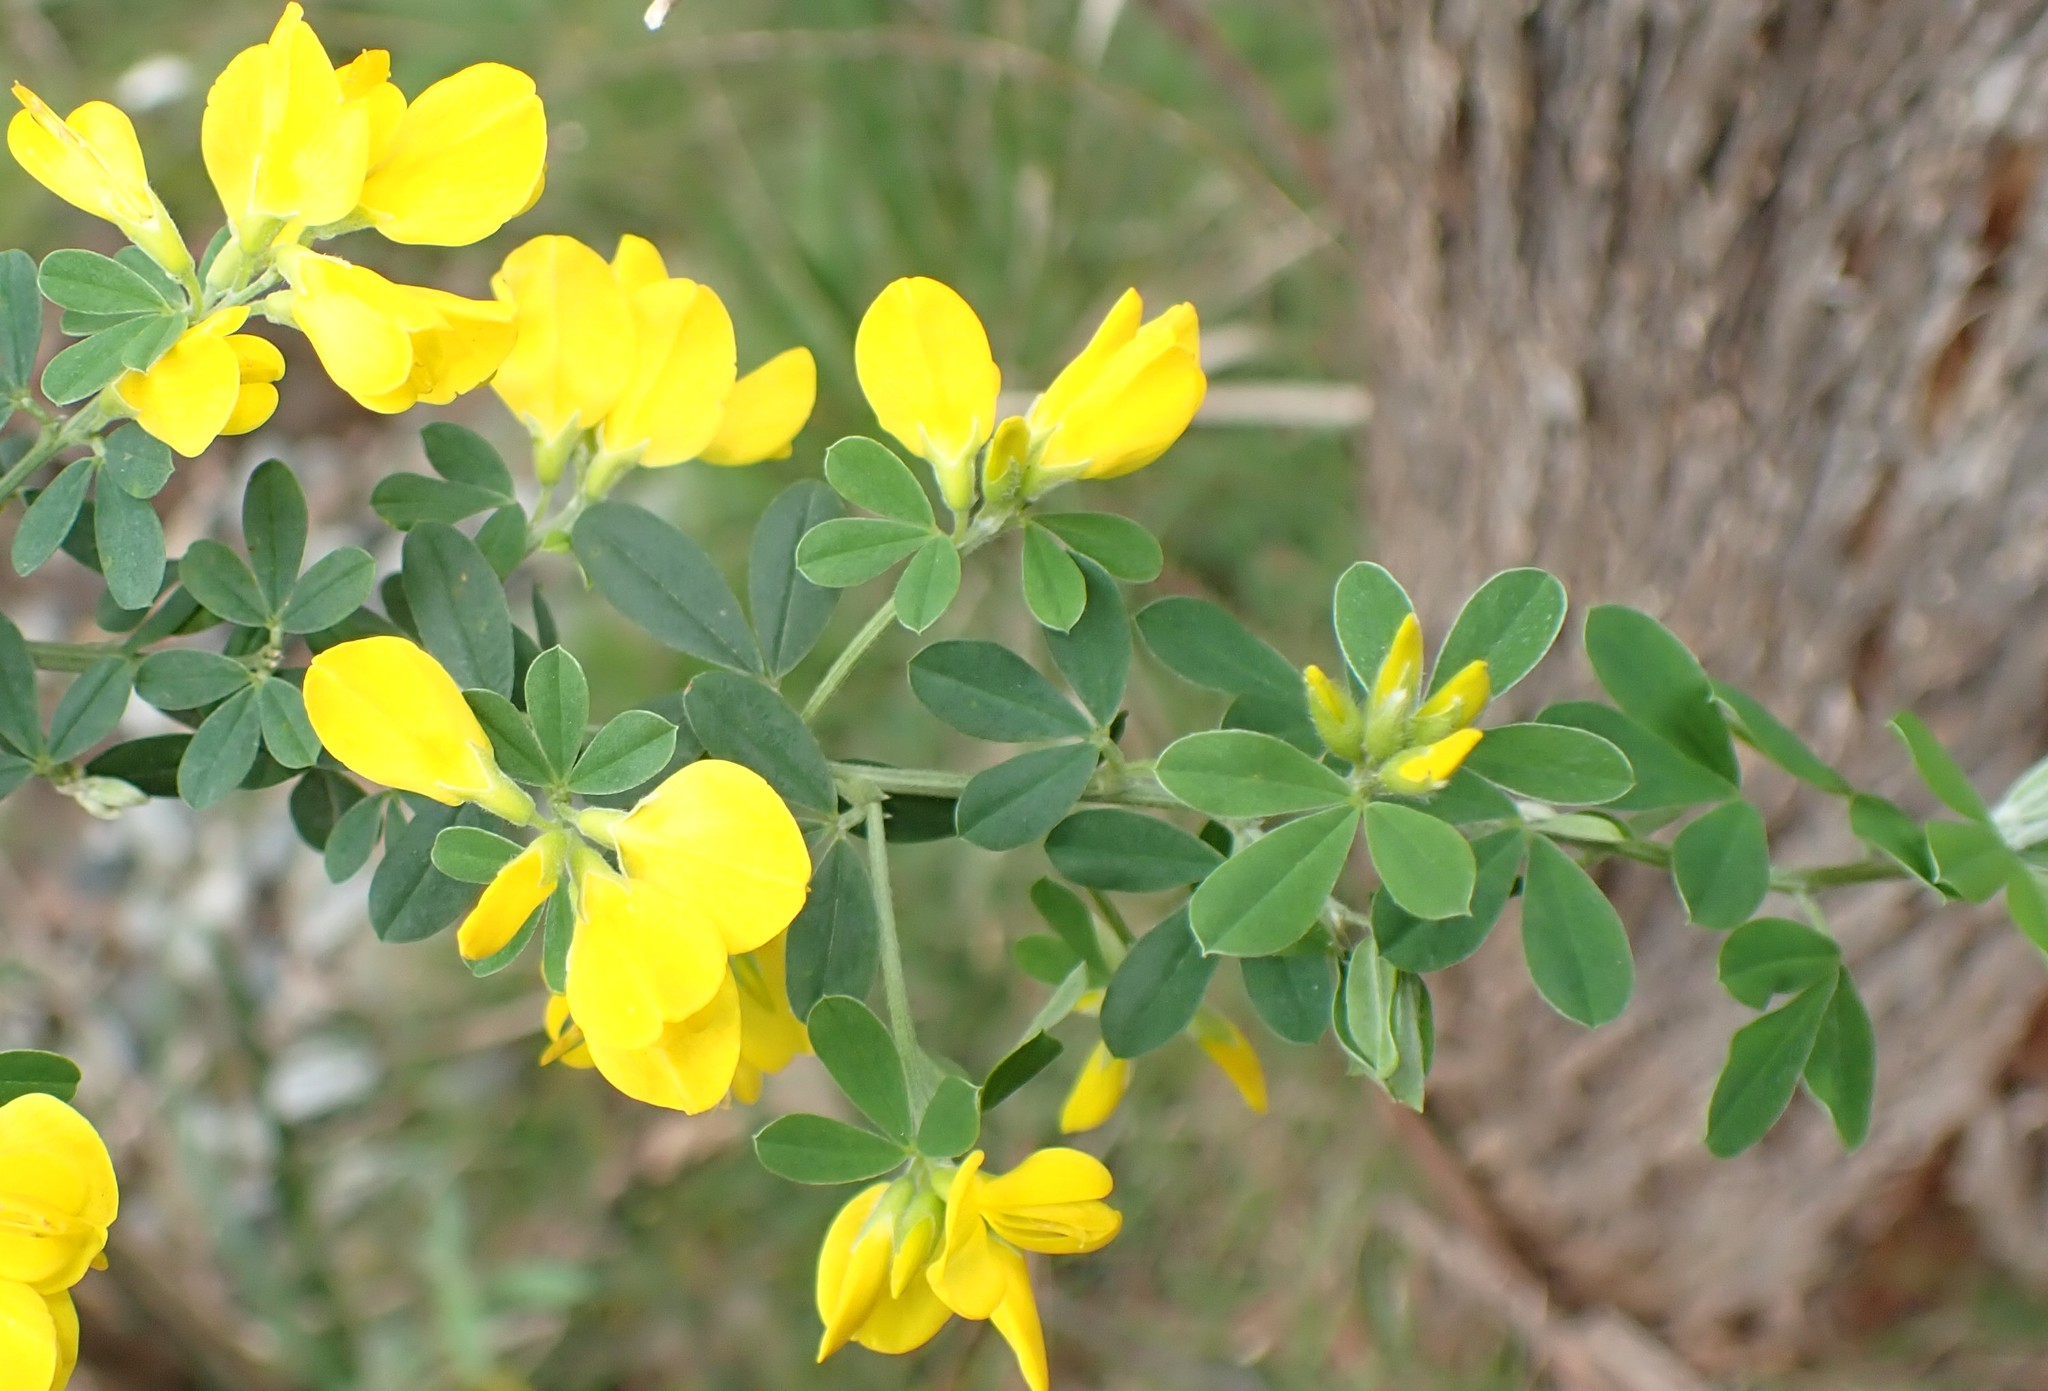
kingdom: Plantae
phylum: Tracheophyta
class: Magnoliopsida
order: Fabales
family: Fabaceae
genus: Genista
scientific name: Genista monspessulana
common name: Montpellier broom
